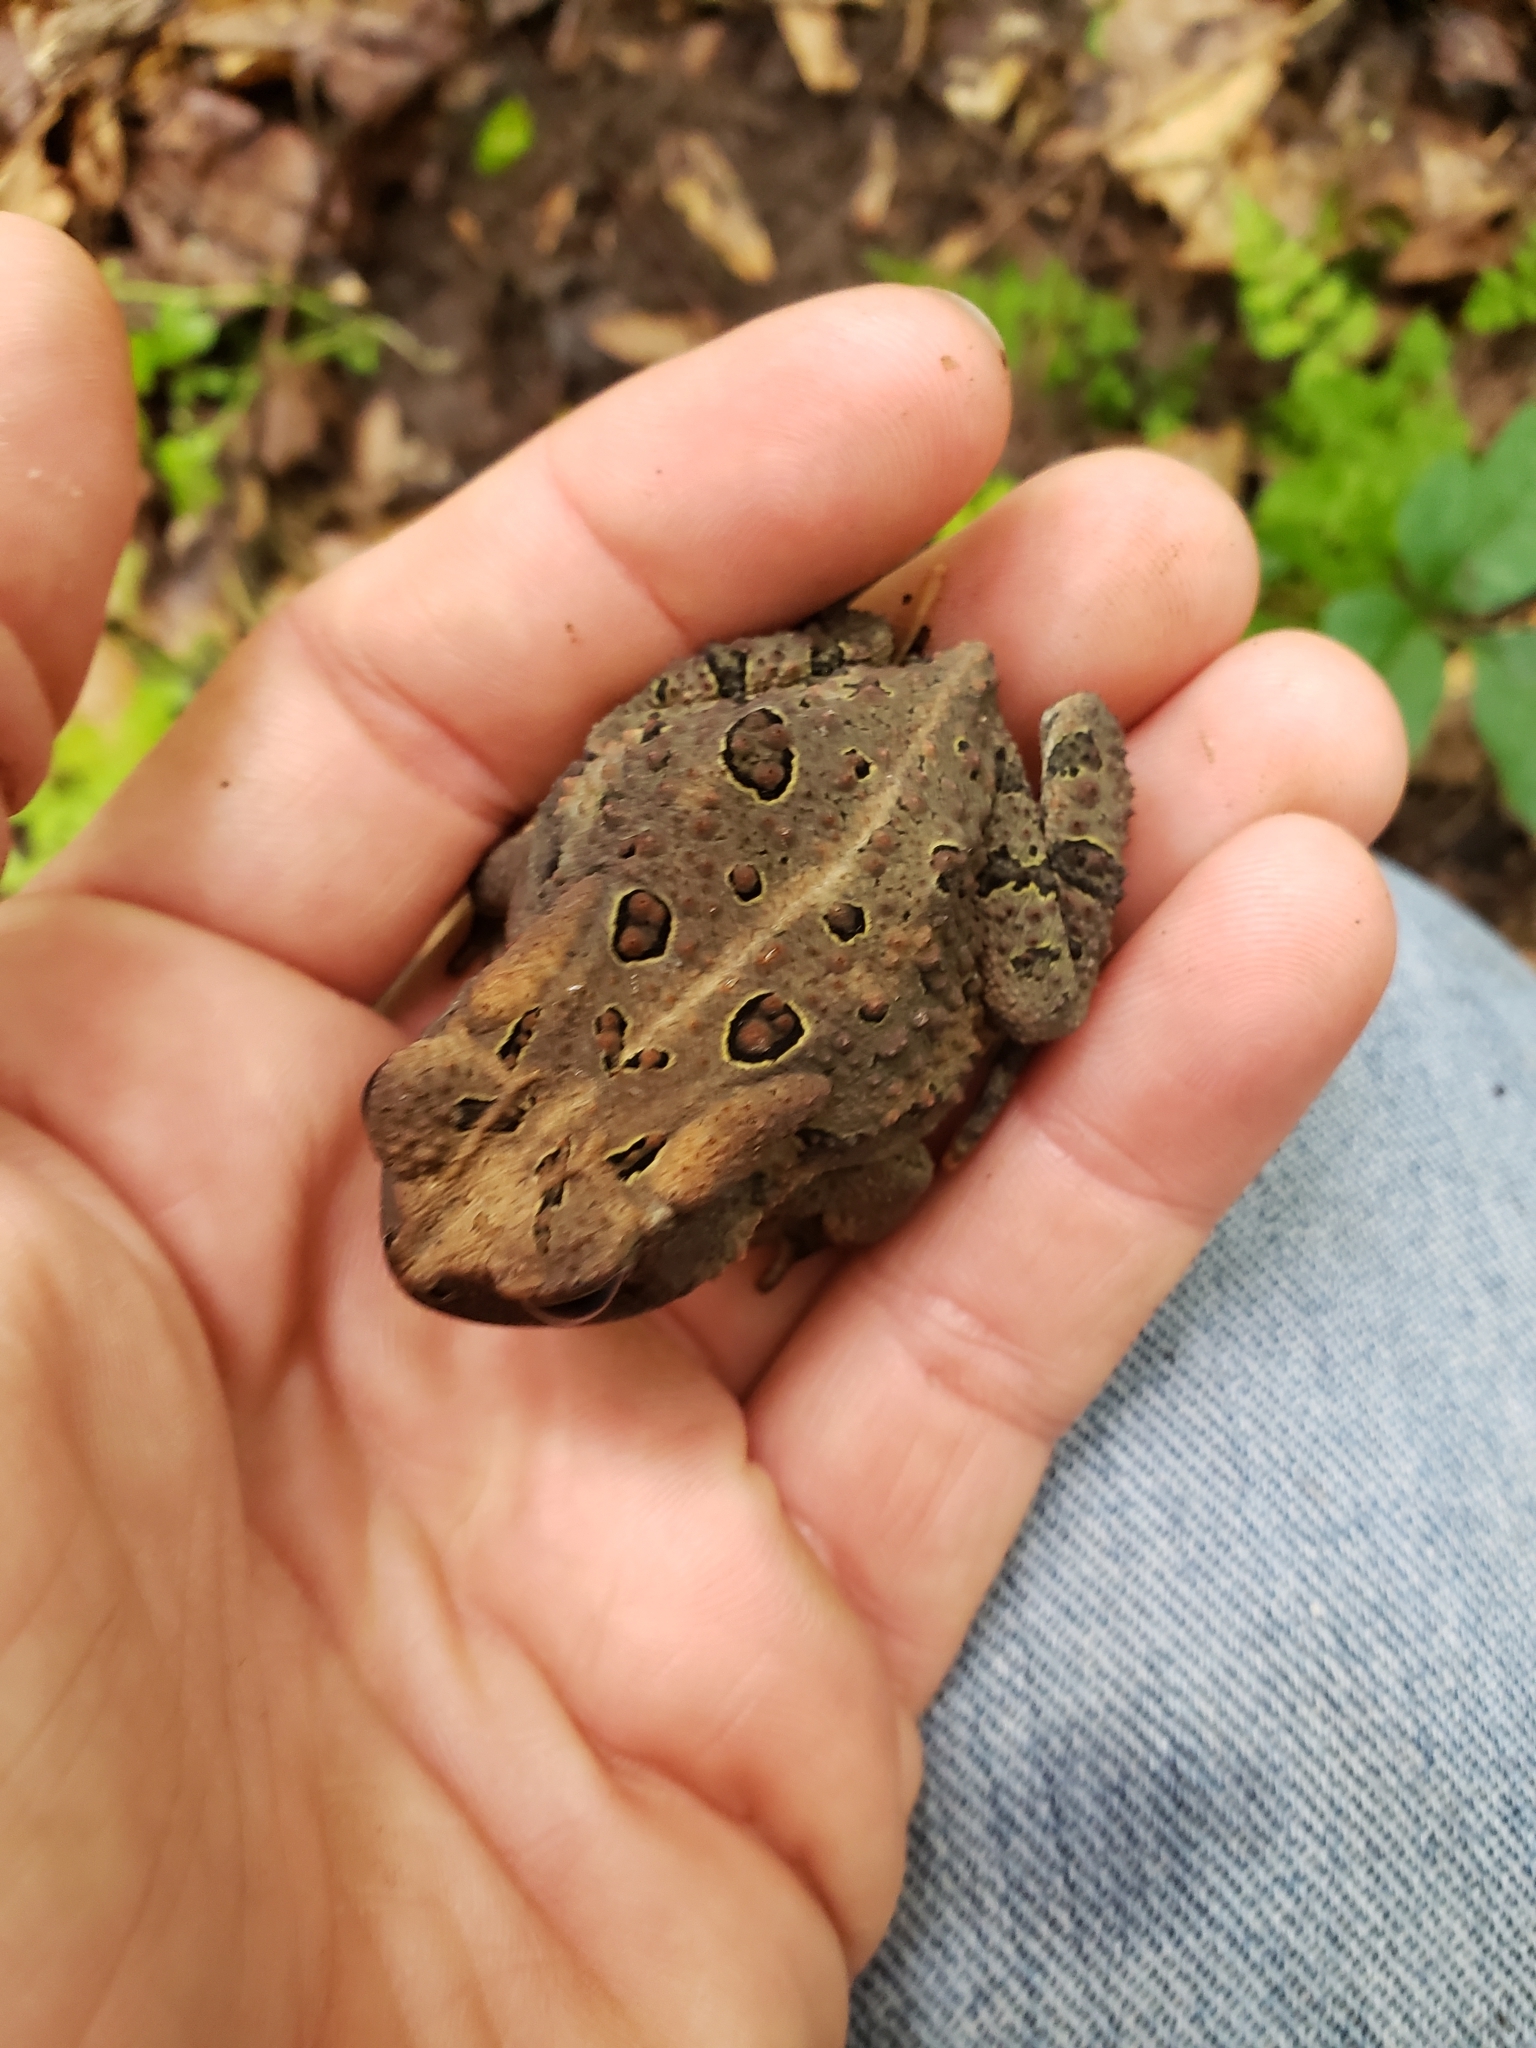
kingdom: Animalia
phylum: Chordata
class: Amphibia
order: Anura
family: Bufonidae
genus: Anaxyrus
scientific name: Anaxyrus fowleri
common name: Fowler's toad
